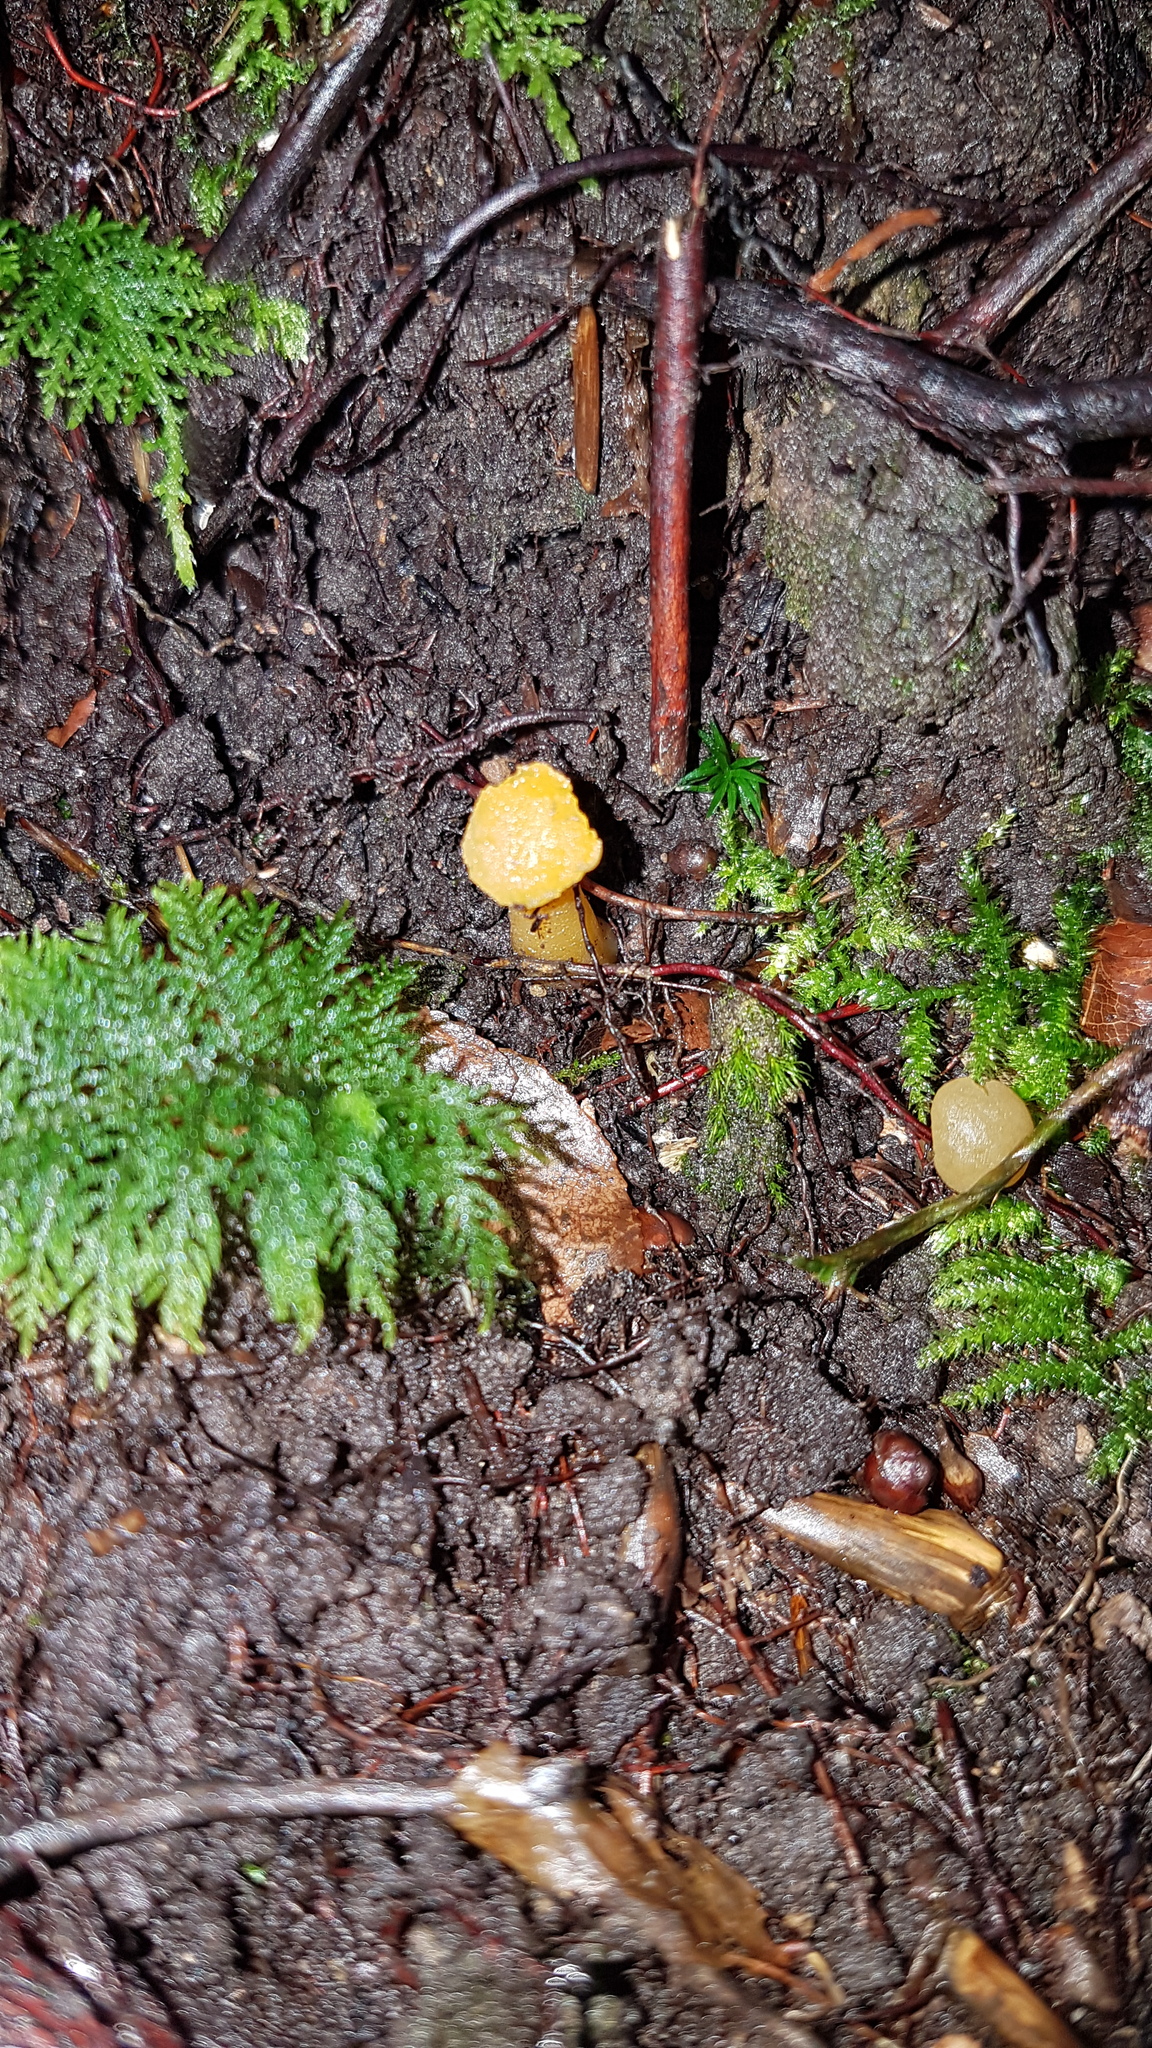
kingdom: Fungi
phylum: Ascomycota
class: Leotiomycetes
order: Leotiales
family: Leotiaceae
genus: Leotia
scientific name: Leotia lubrica
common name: Jellybaby
